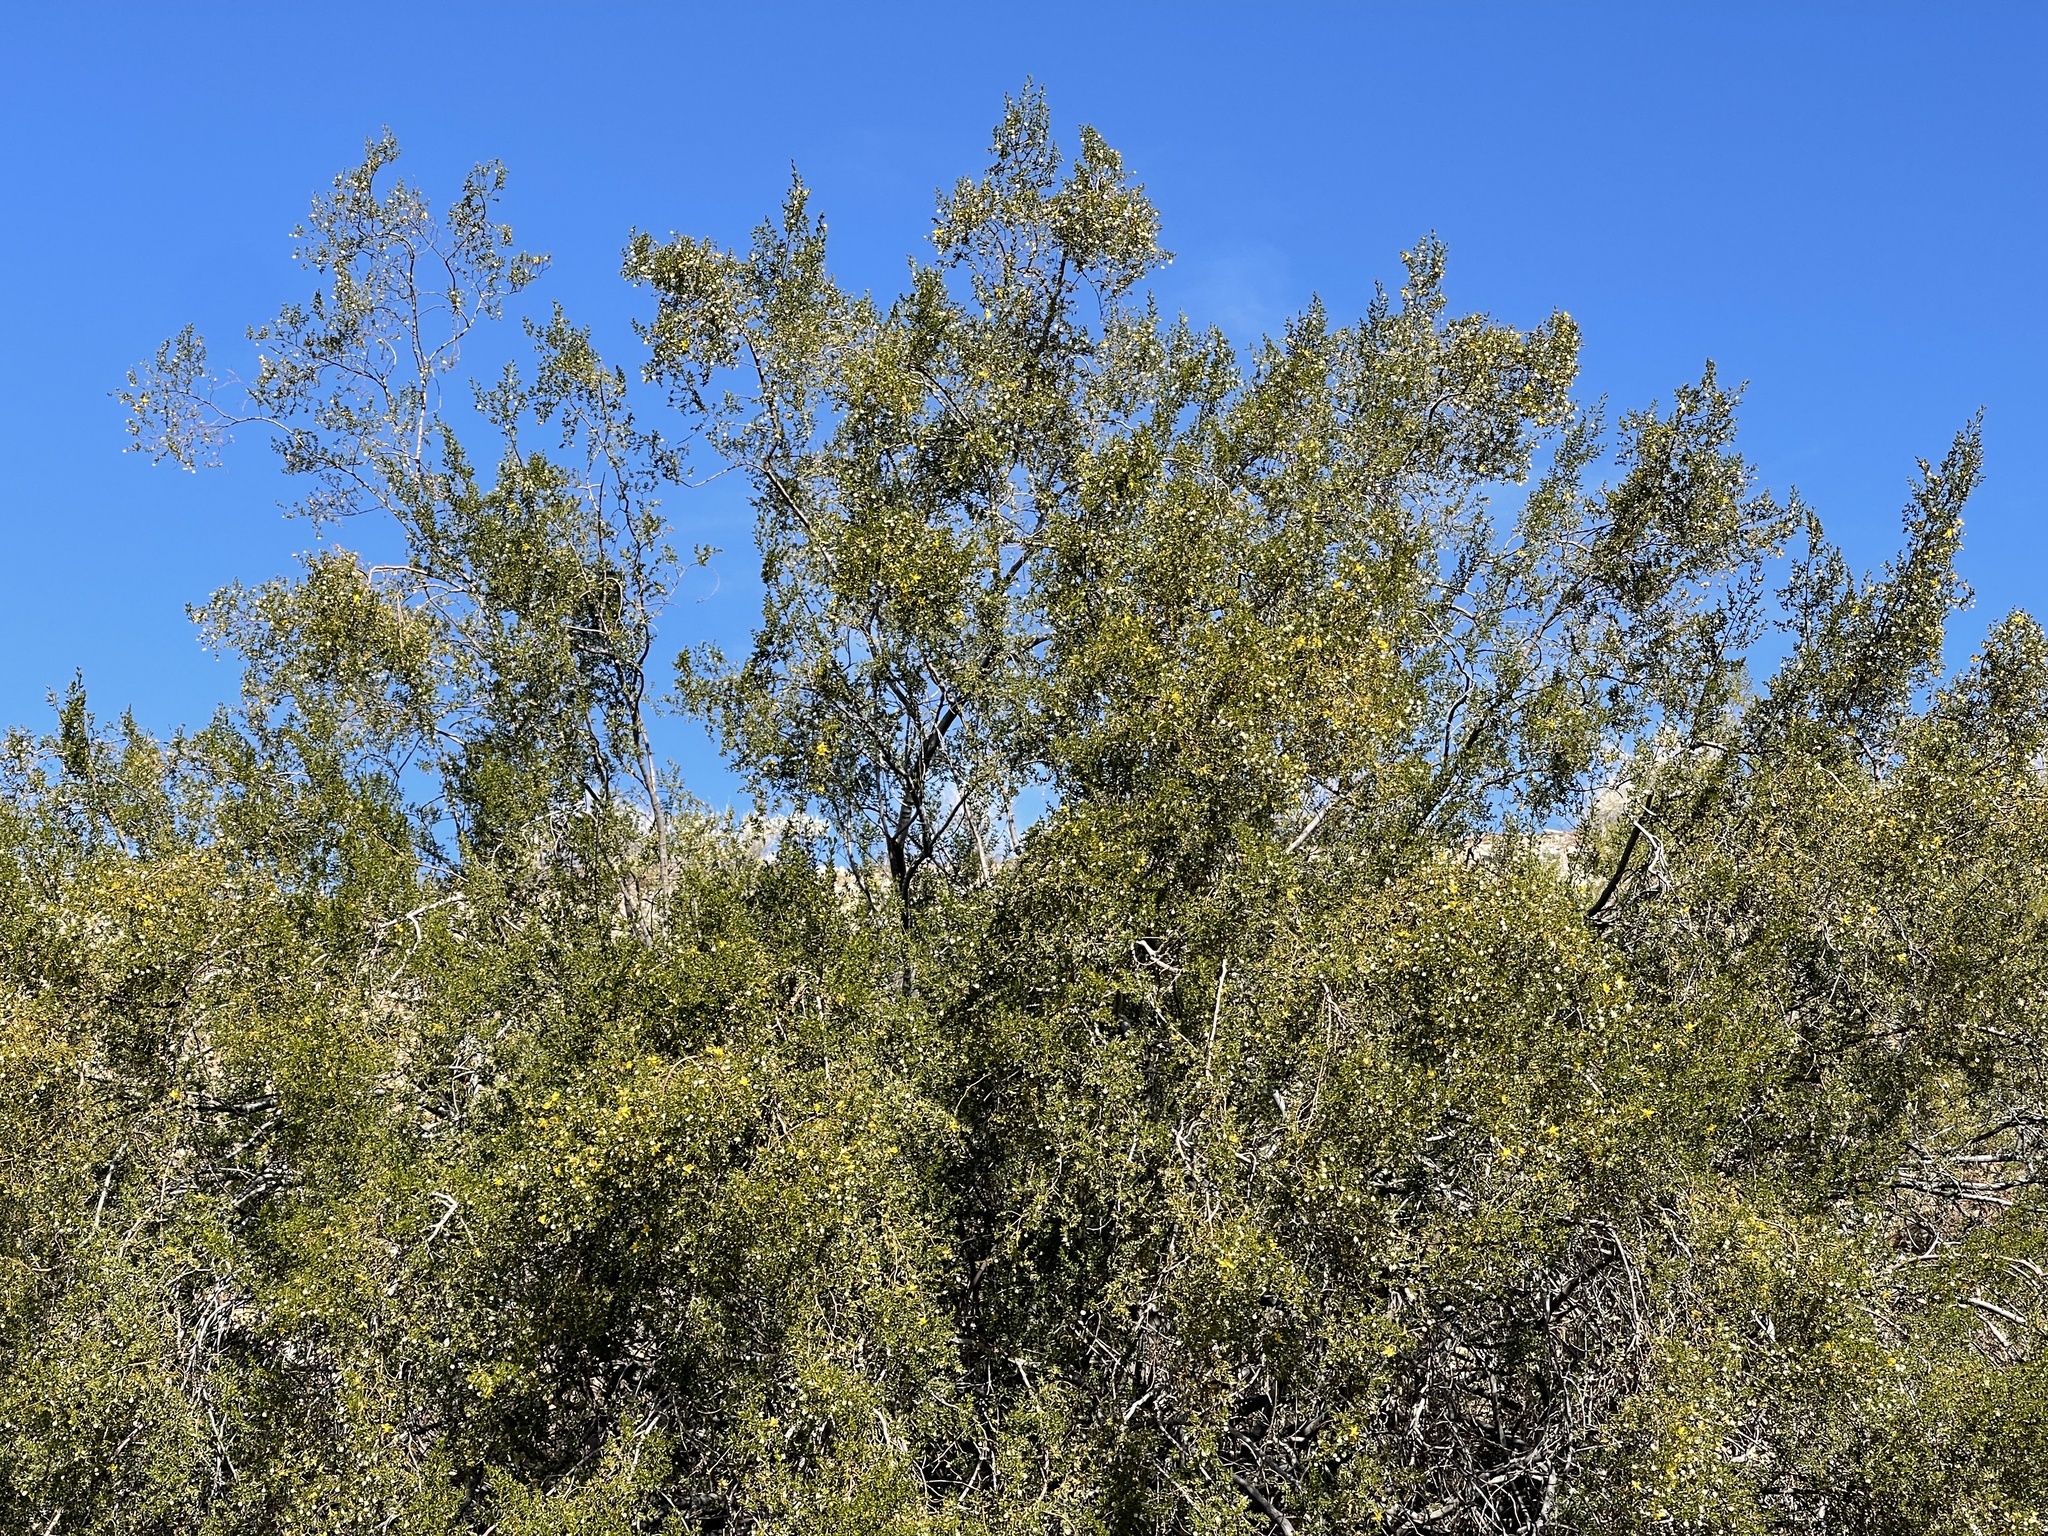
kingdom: Plantae
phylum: Tracheophyta
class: Magnoliopsida
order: Zygophyllales
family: Zygophyllaceae
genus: Larrea
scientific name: Larrea tridentata
